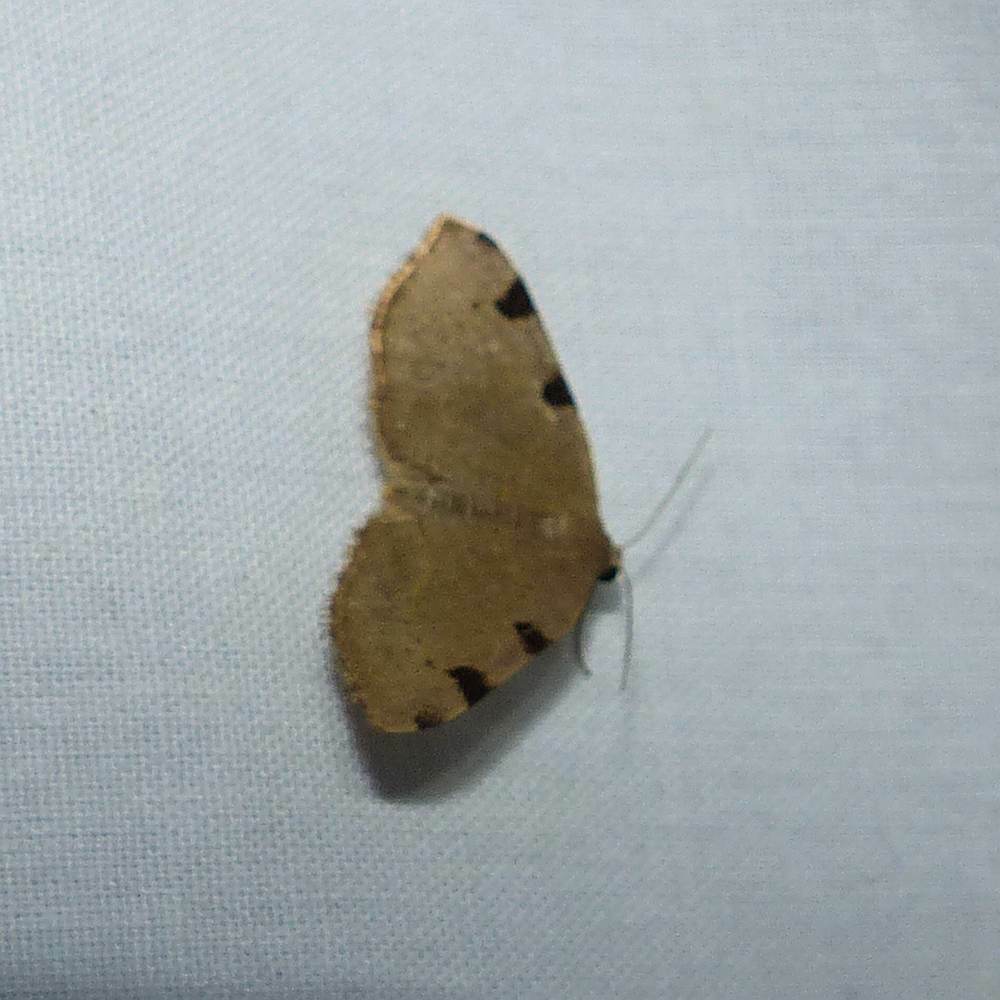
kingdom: Animalia
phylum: Arthropoda
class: Insecta
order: Lepidoptera
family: Geometridae
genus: Heterophleps
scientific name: Heterophleps triguttaria
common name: Three-spotted fillip
